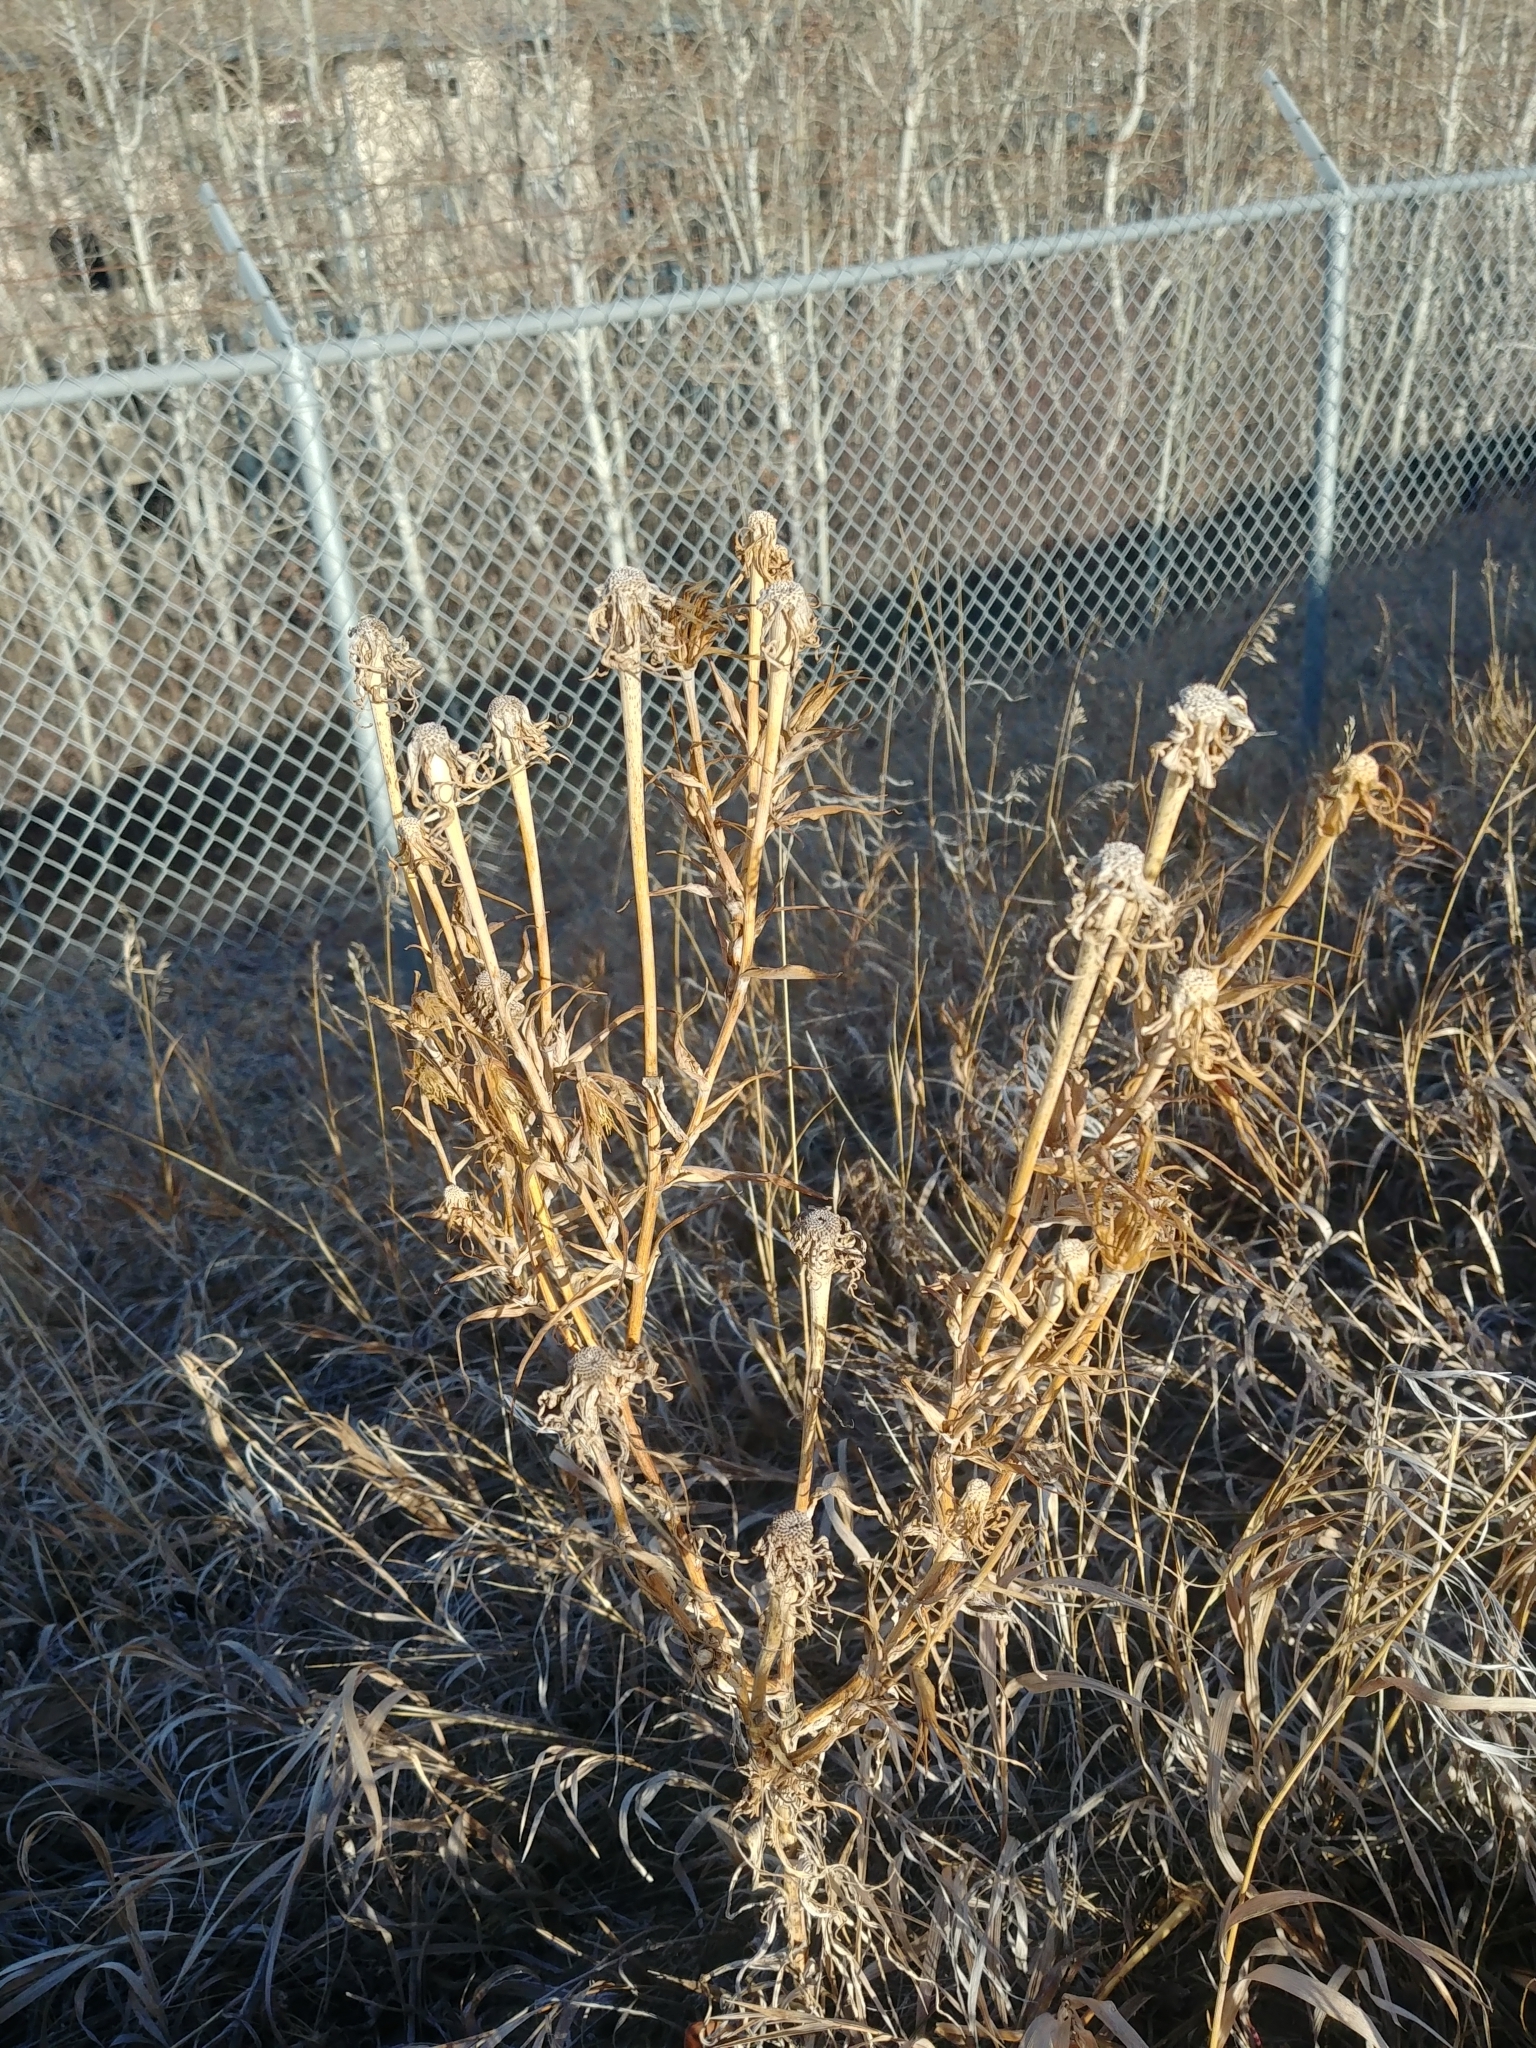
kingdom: Plantae
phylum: Tracheophyta
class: Magnoliopsida
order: Asterales
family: Asteraceae
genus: Tragopogon
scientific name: Tragopogon dubius
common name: Yellow salsify
